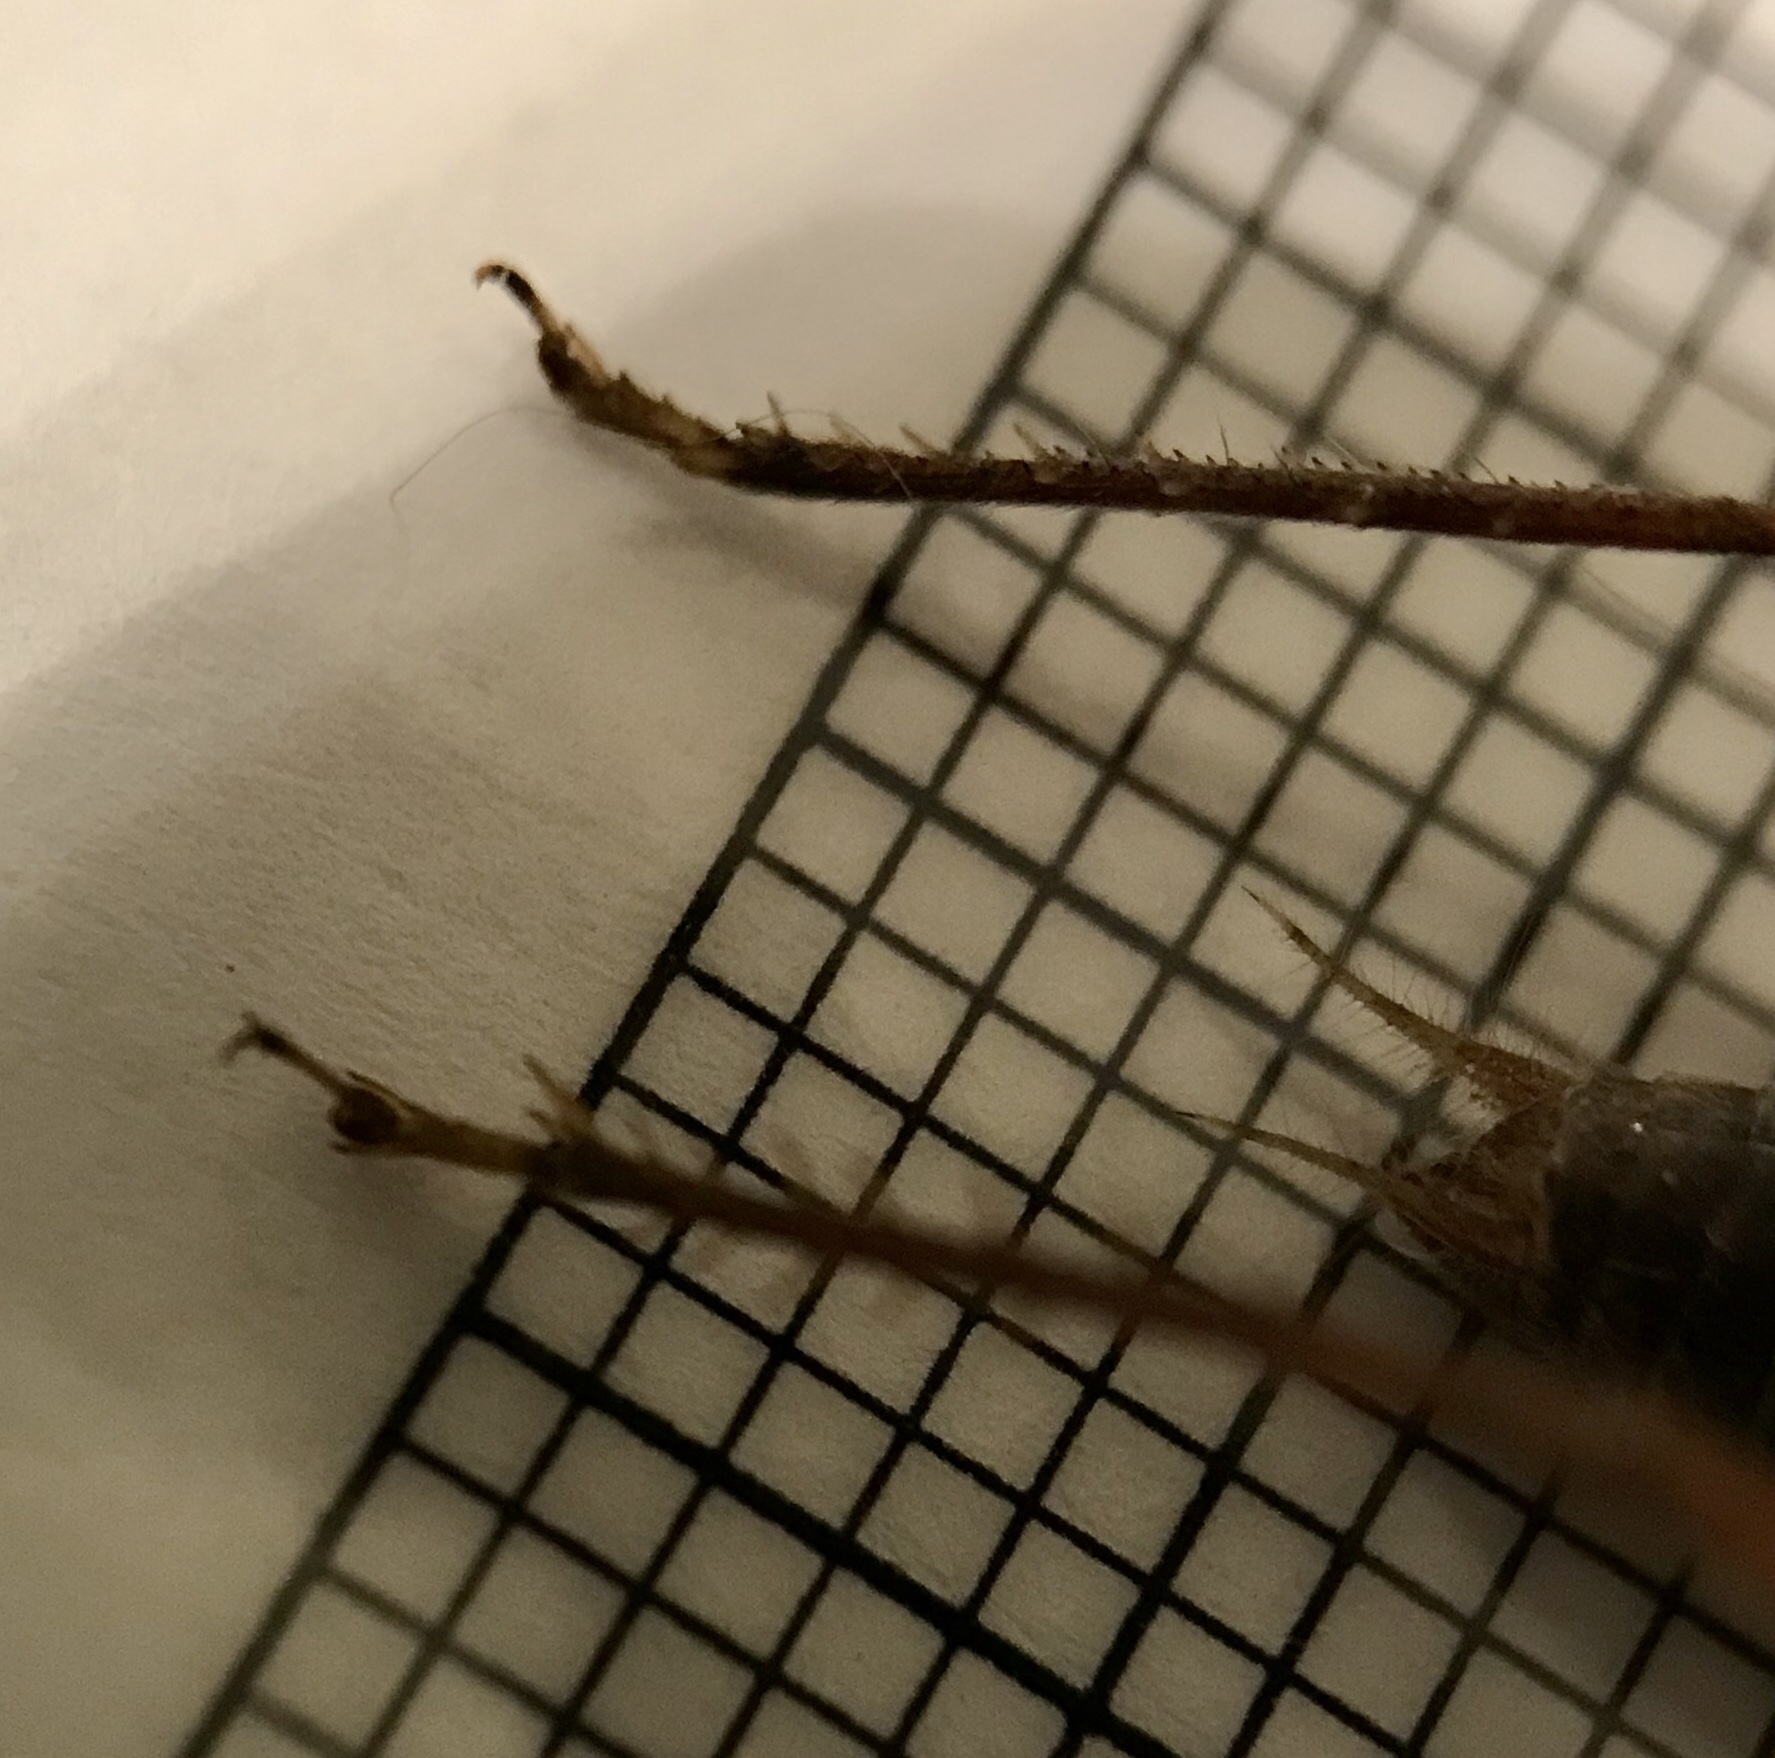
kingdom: Animalia
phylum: Arthropoda
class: Insecta
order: Orthoptera
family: Gryllidae
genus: Hapithus
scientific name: Hapithus agitator
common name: Restless bush cricket
